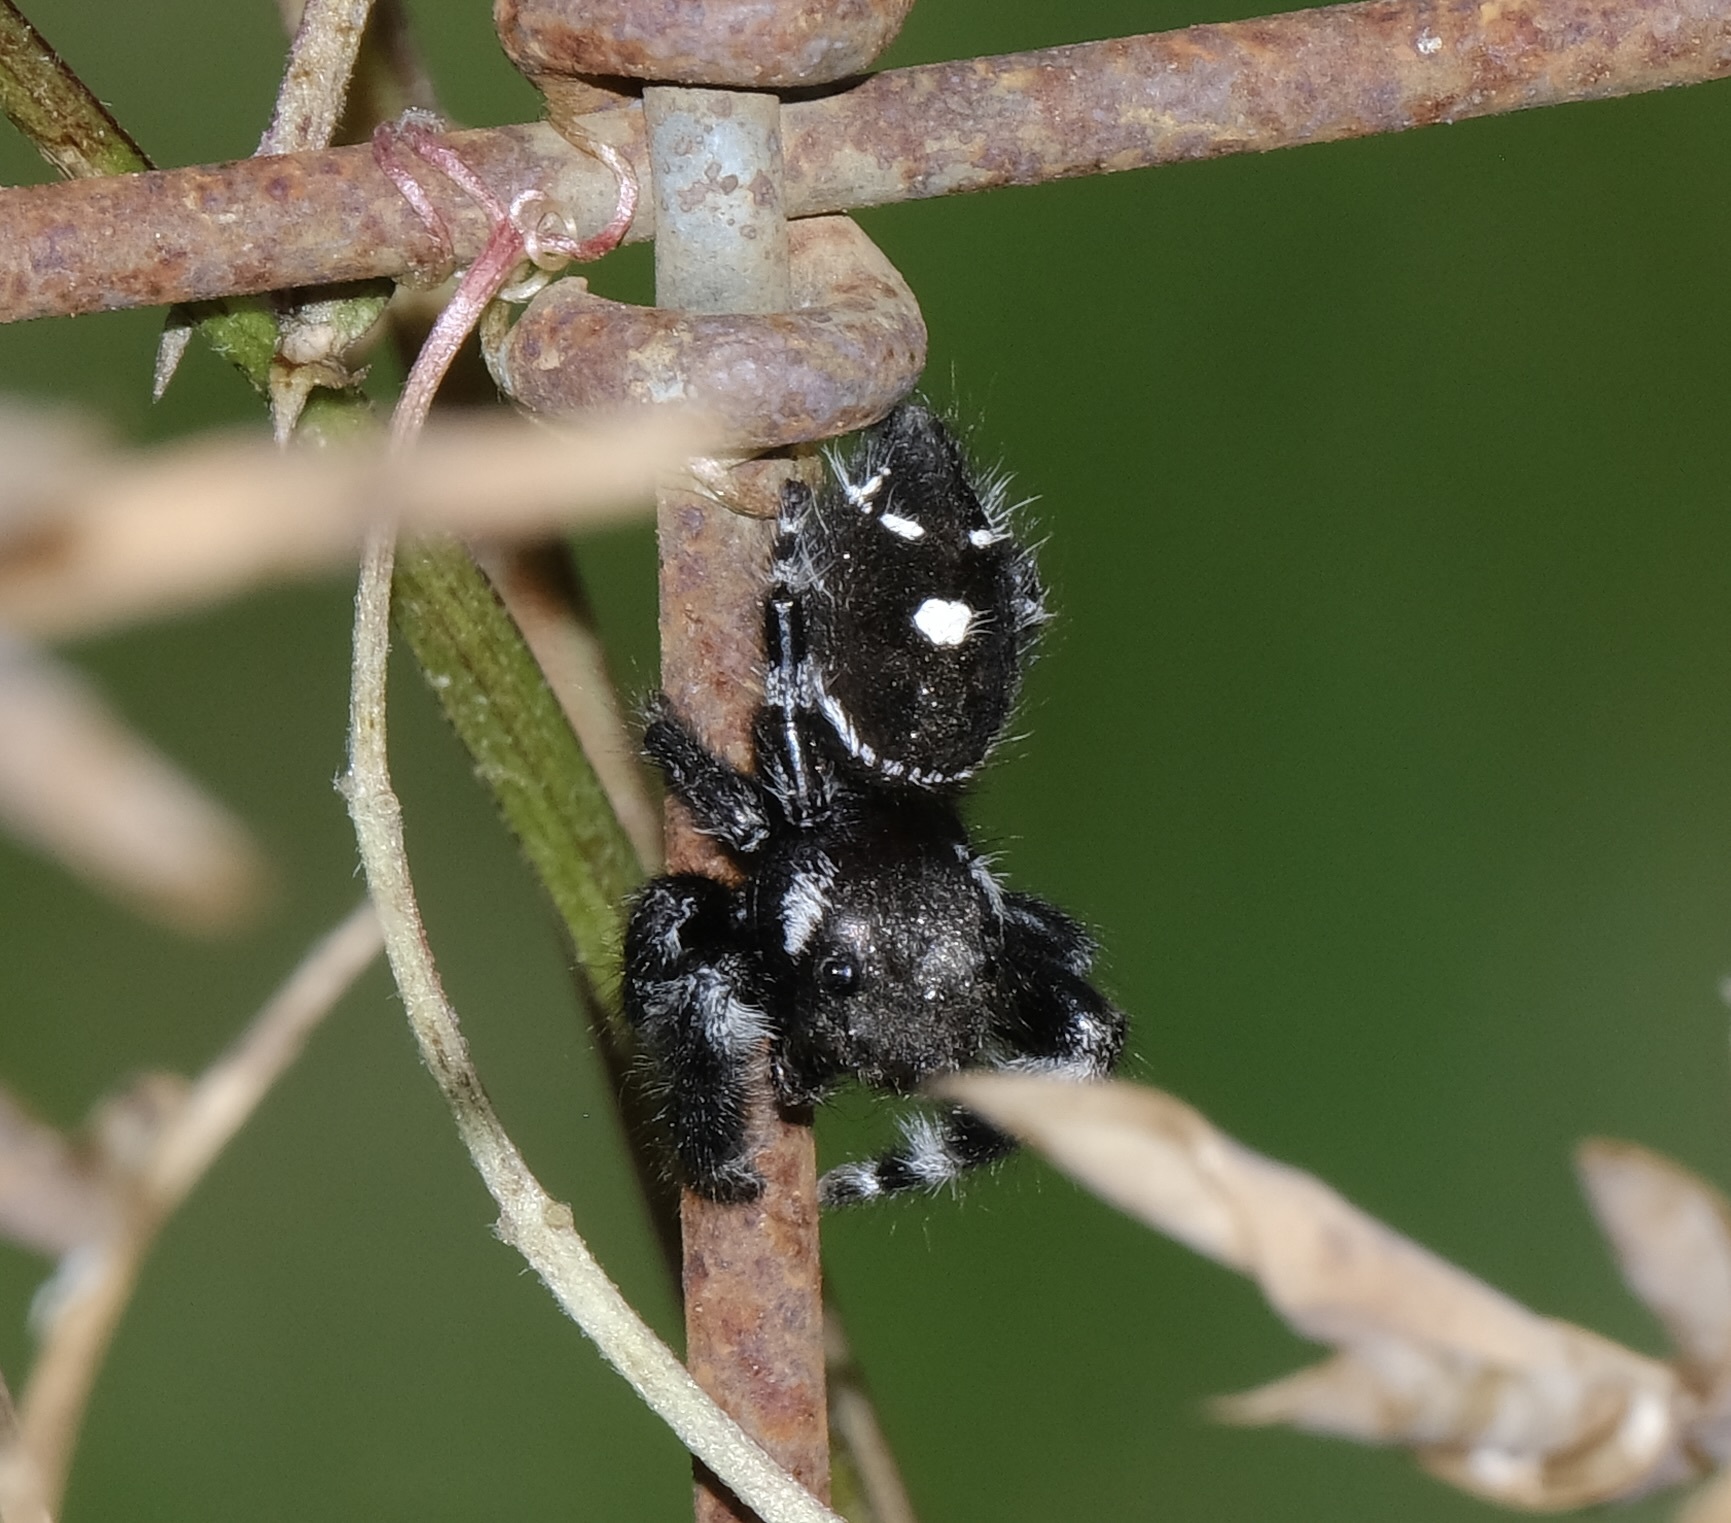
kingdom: Animalia
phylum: Arthropoda
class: Arachnida
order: Araneae
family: Salticidae
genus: Phidippus
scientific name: Phidippus audax
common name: Bold jumper
